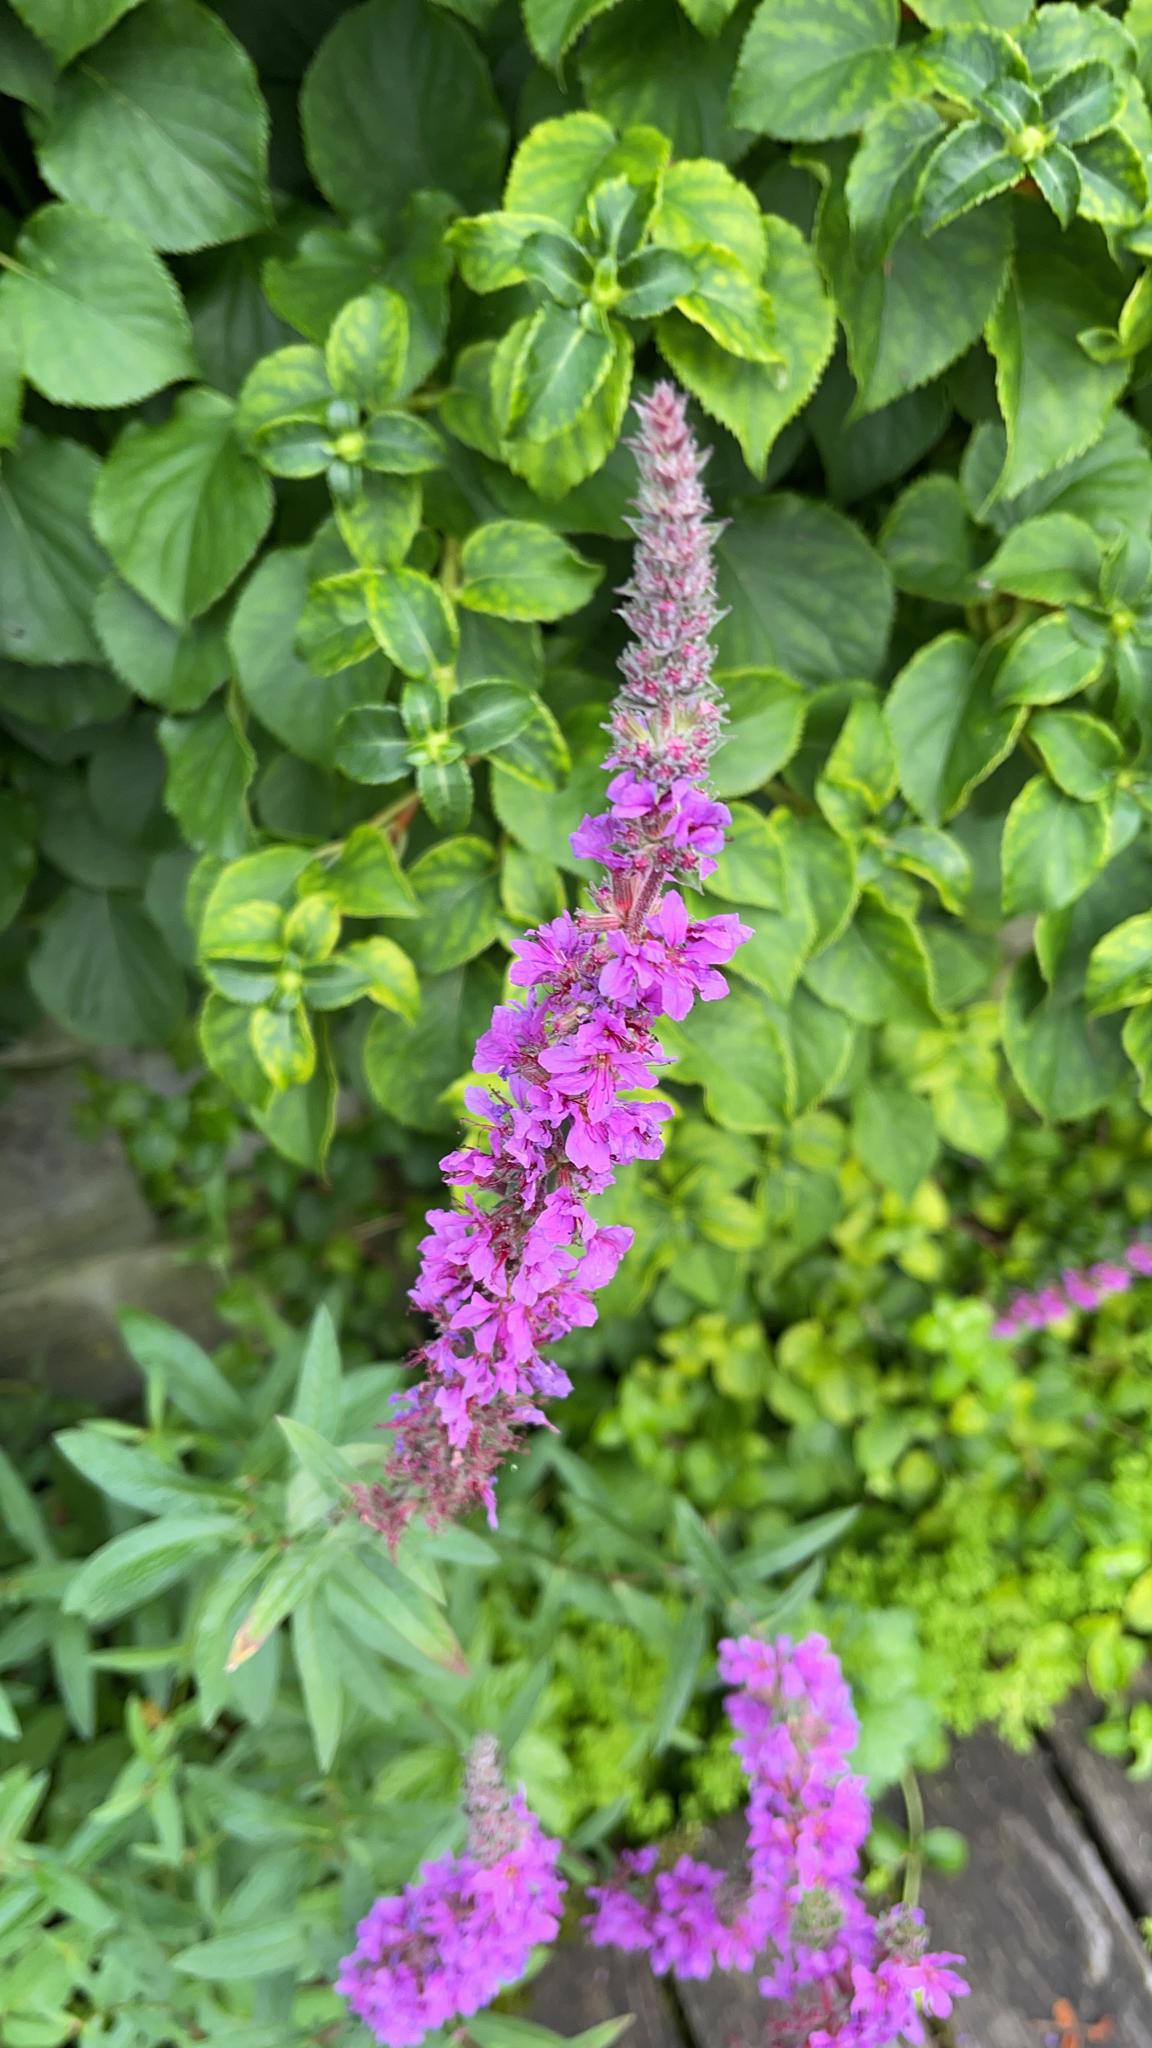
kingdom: Plantae
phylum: Tracheophyta
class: Magnoliopsida
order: Myrtales
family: Lythraceae
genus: Lythrum
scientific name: Lythrum salicaria
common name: Purple loosestrife
